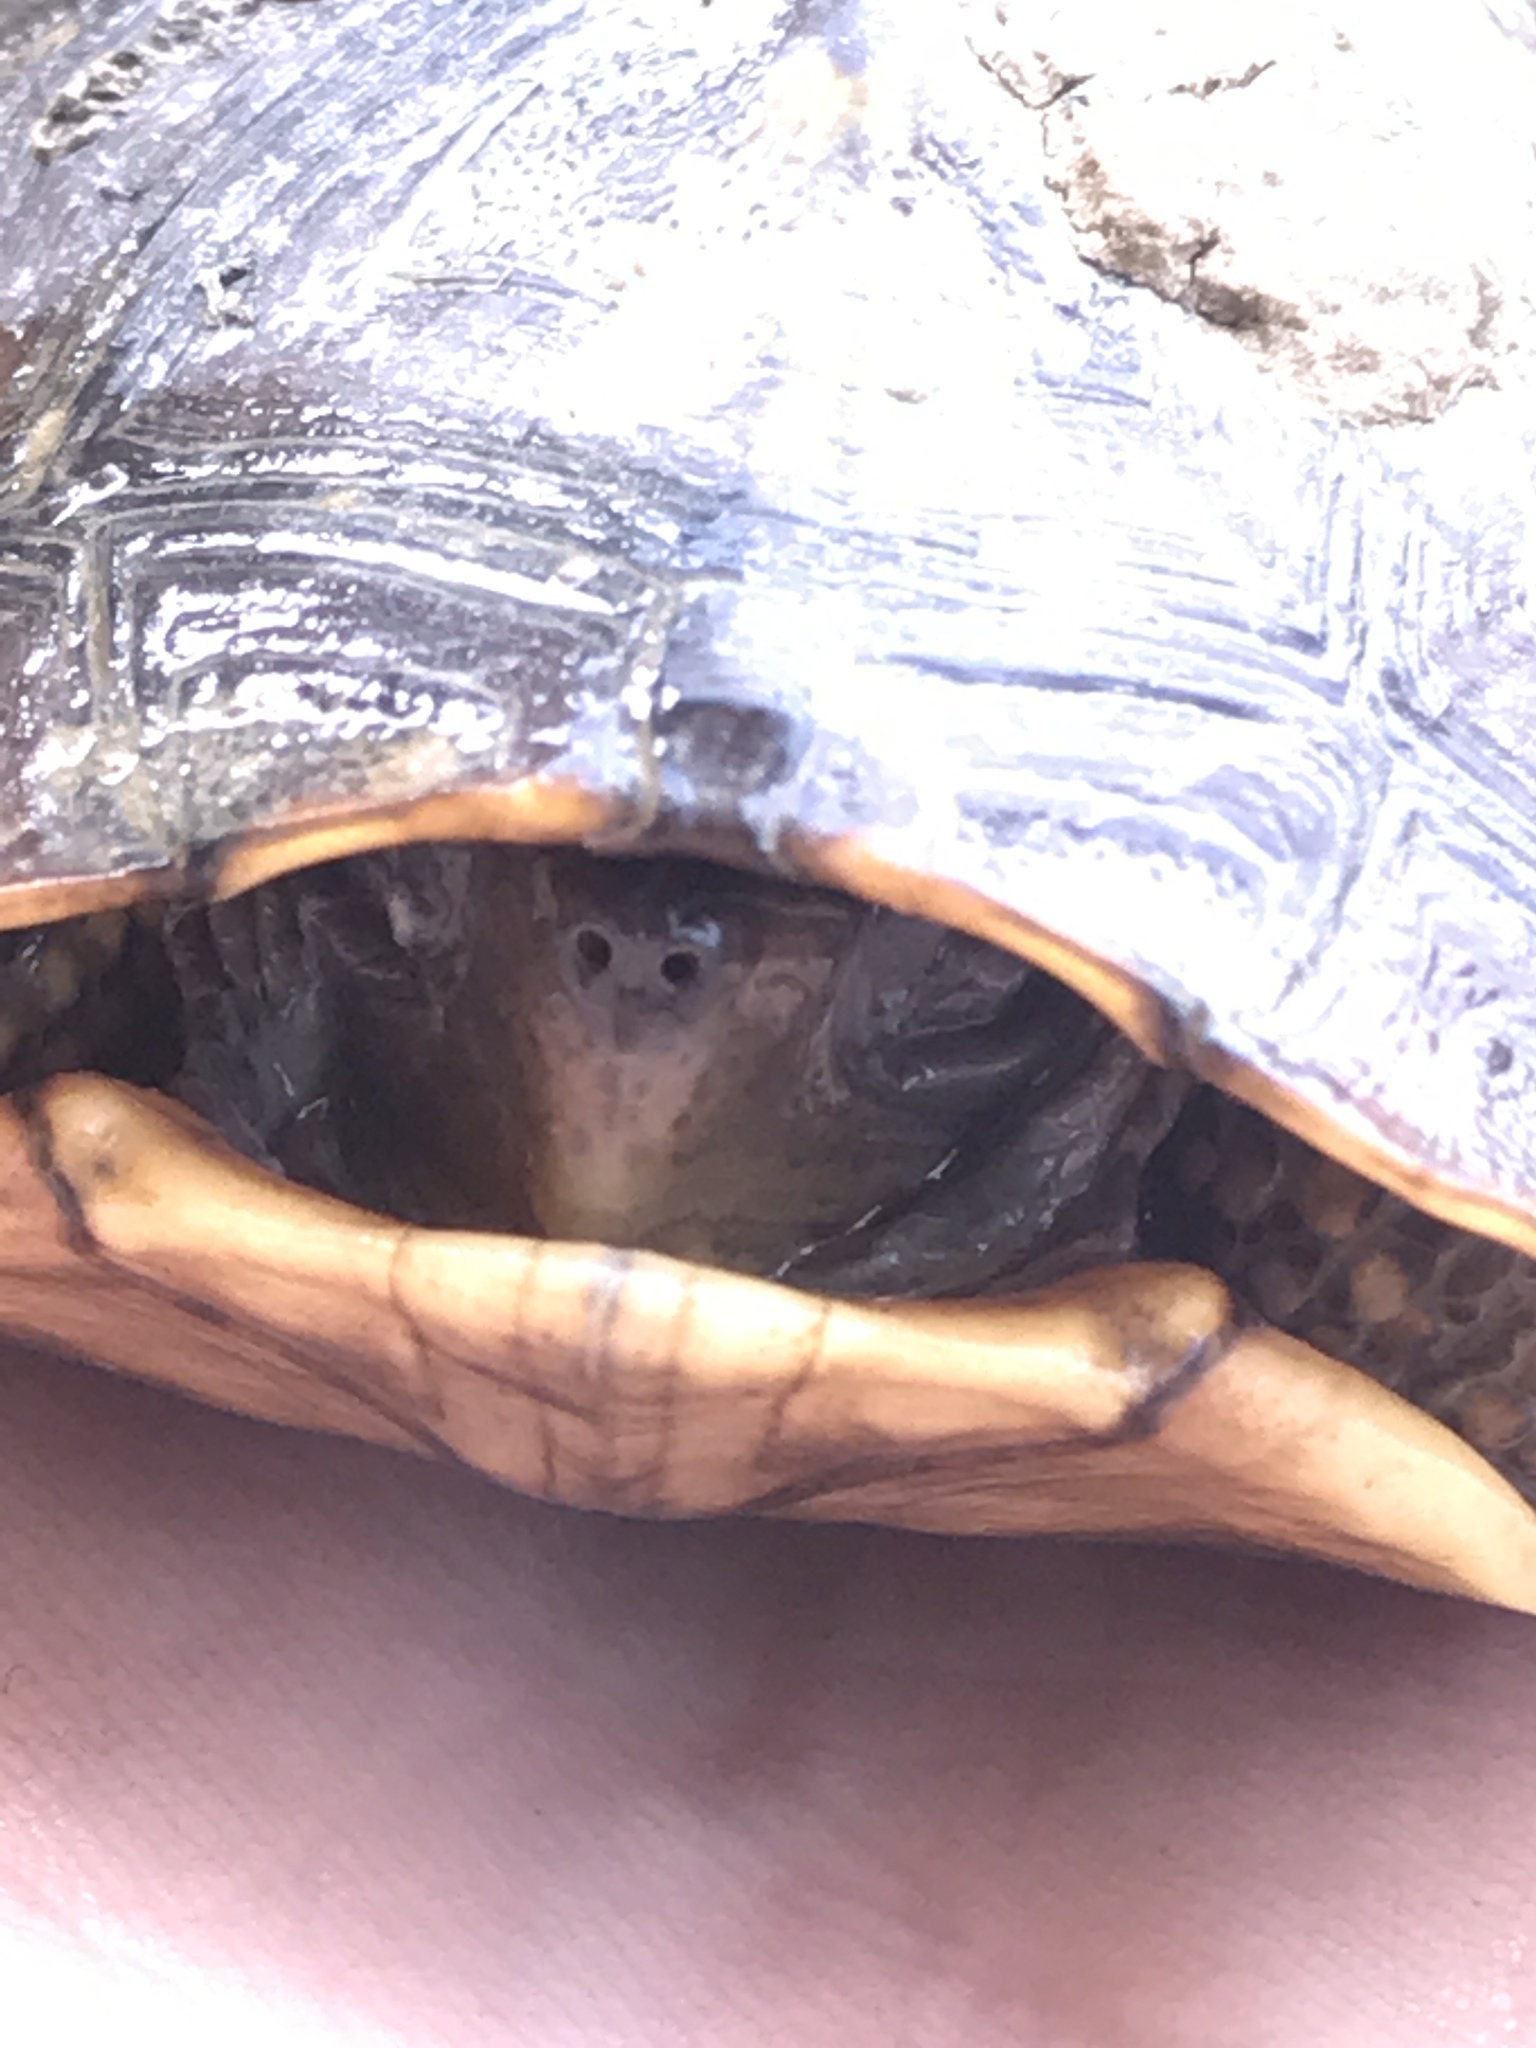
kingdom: Animalia
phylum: Chordata
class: Testudines
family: Emydidae
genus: Terrapene
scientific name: Terrapene carolina
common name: Common box turtle
